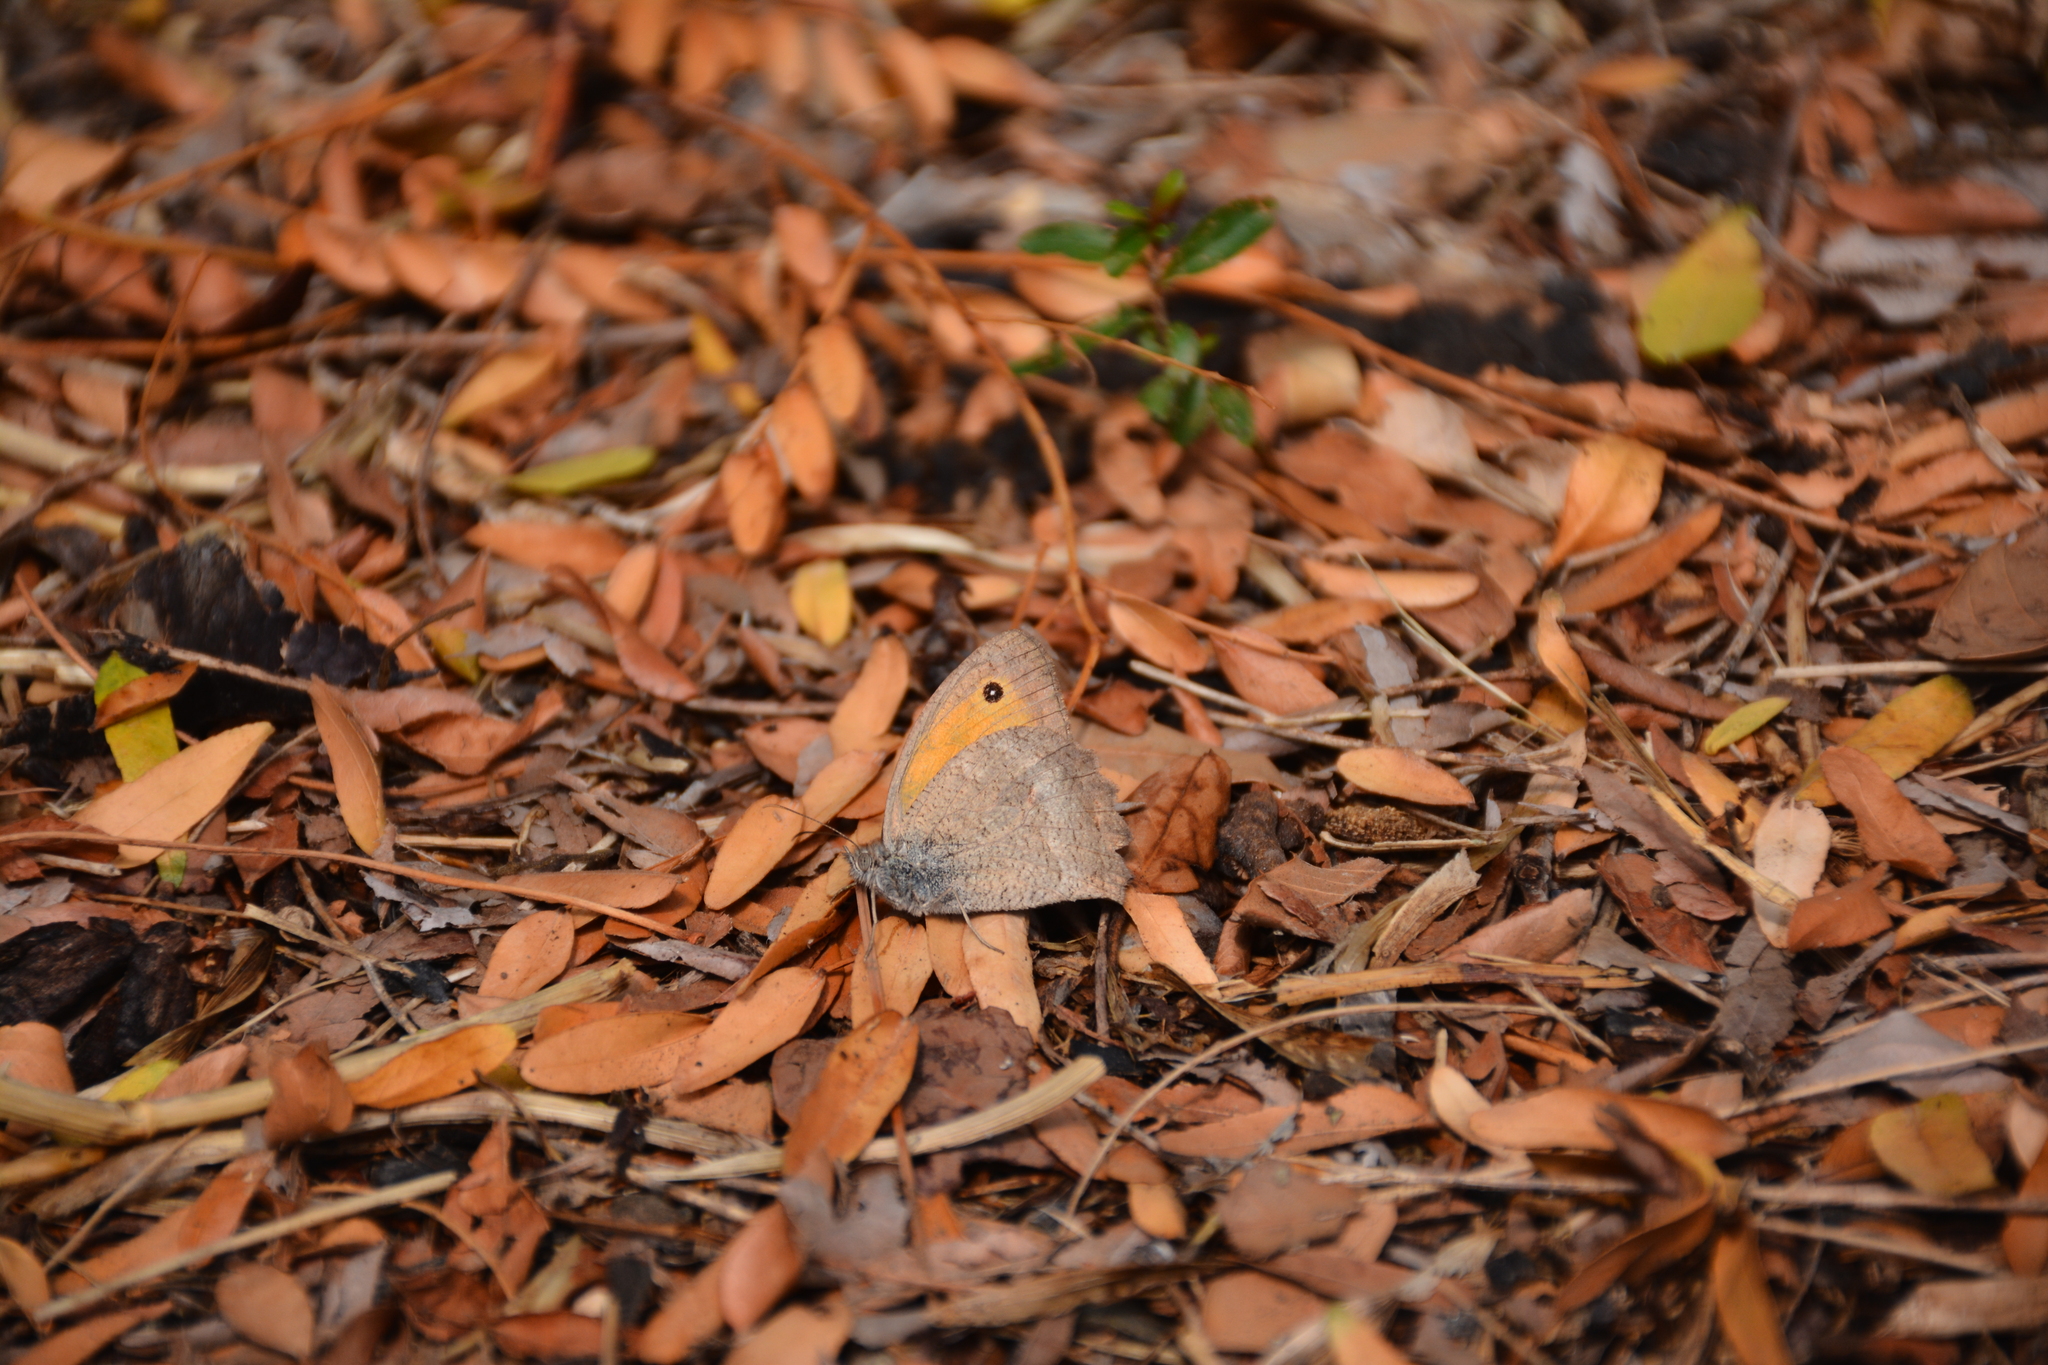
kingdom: Animalia
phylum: Arthropoda
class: Insecta
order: Lepidoptera
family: Nymphalidae
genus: Hyponephele
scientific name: Hyponephele lupinus
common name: Oriental meadow brown
